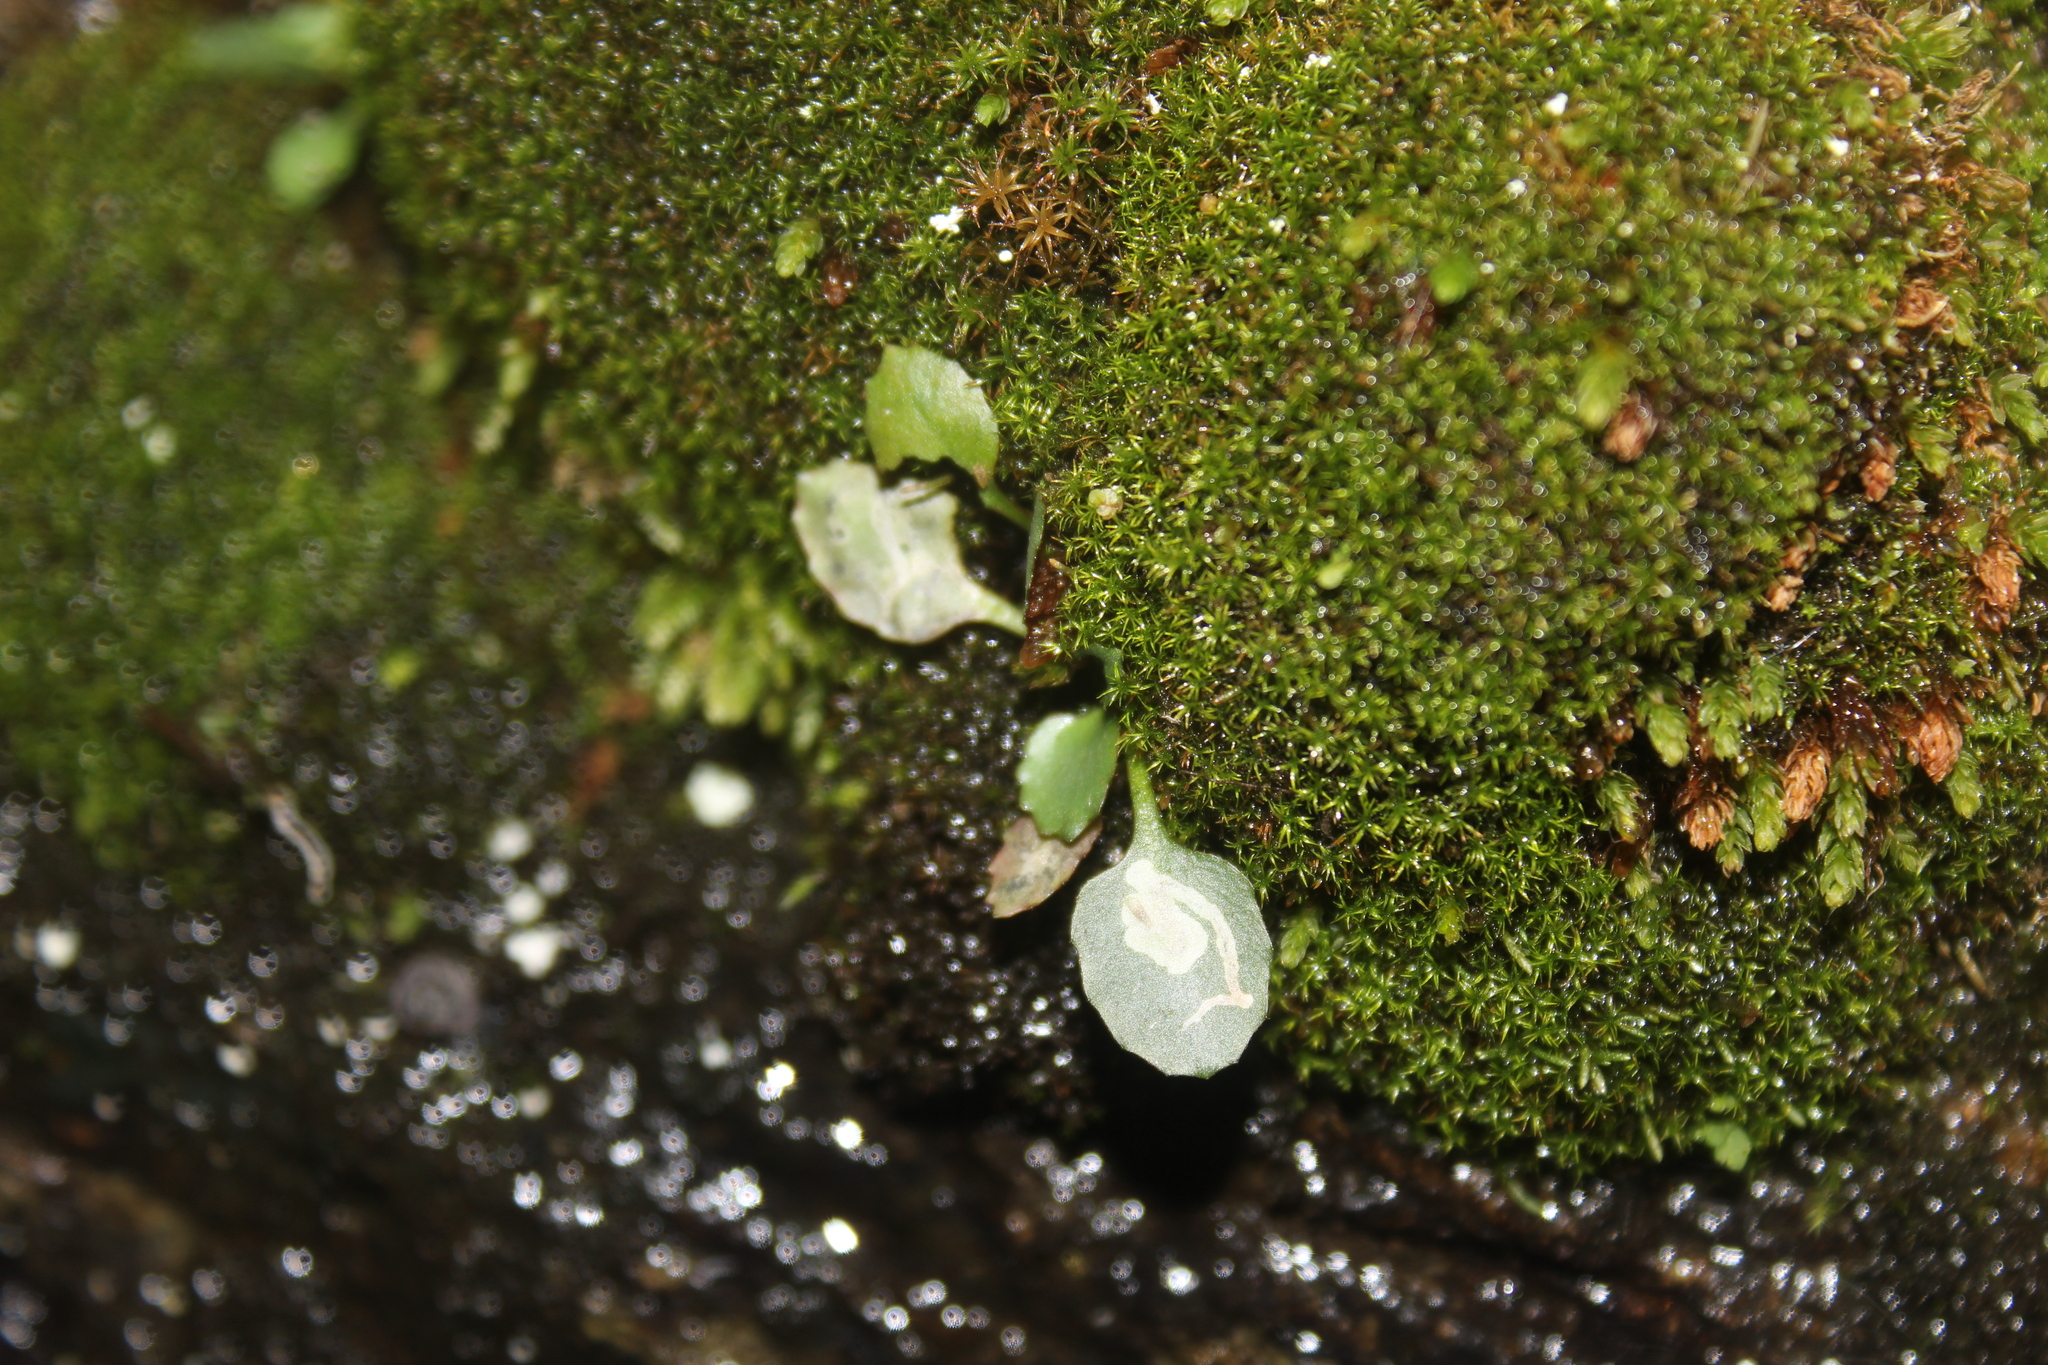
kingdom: Plantae
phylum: Tracheophyta
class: Magnoliopsida
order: Saxifragales
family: Saxifragaceae
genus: Micranthes
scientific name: Micranthes virginiensis
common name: Early saxifrage
